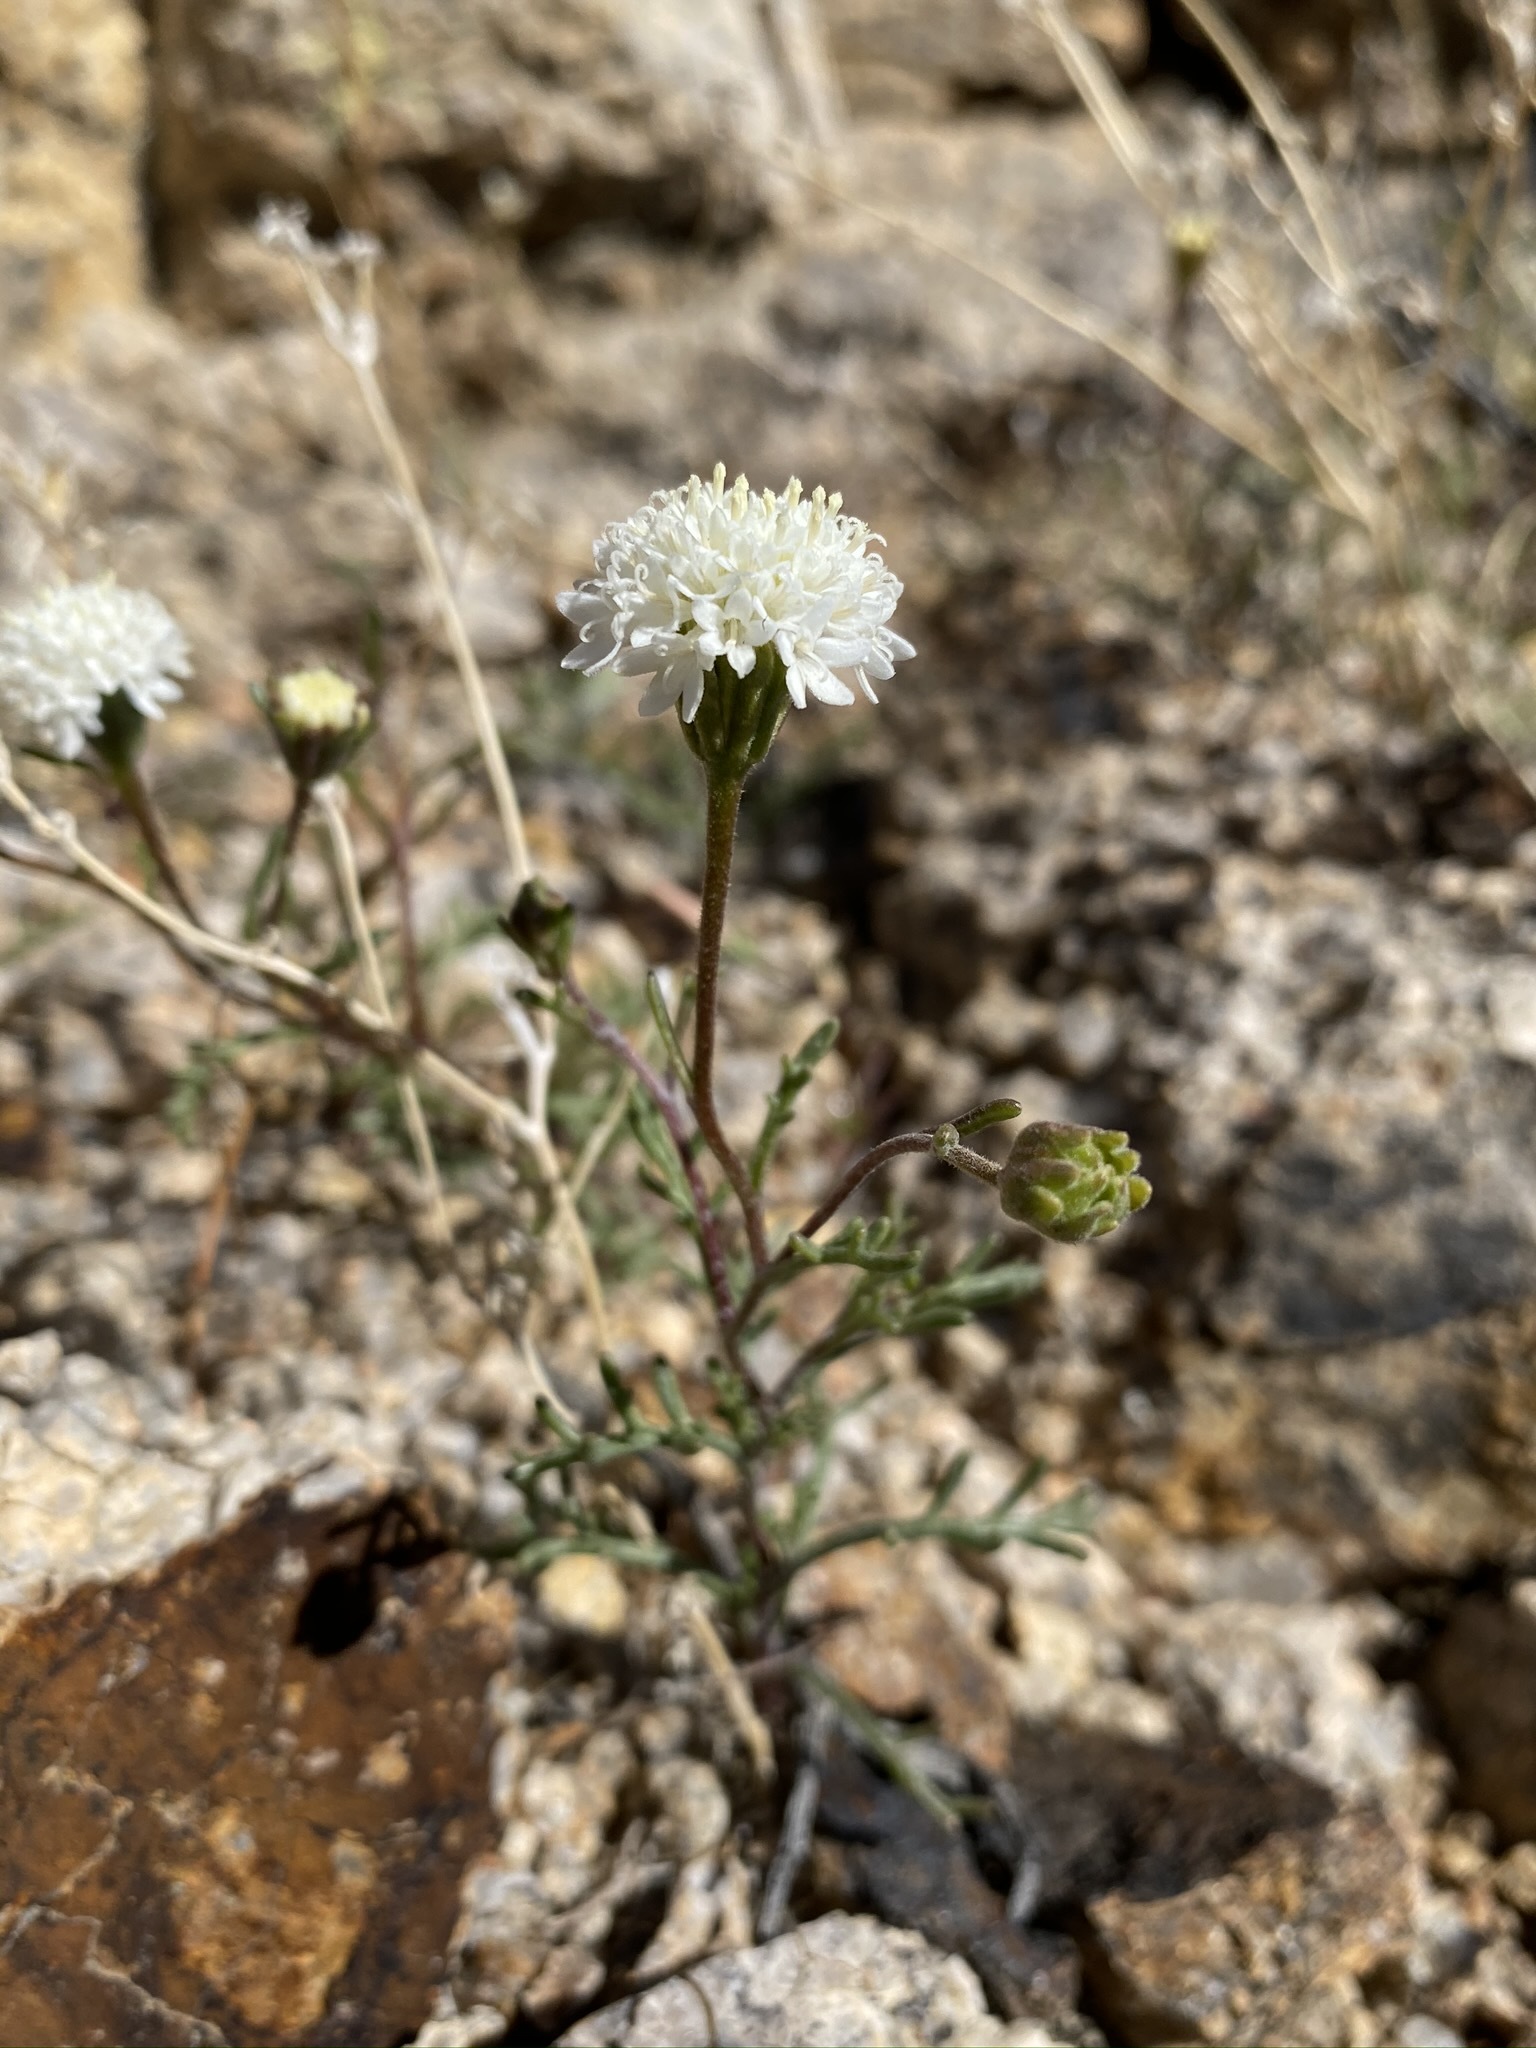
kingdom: Plantae
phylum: Tracheophyta
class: Magnoliopsida
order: Asterales
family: Asteraceae
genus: Chaenactis
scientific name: Chaenactis stevioides
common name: Desert pincushion
